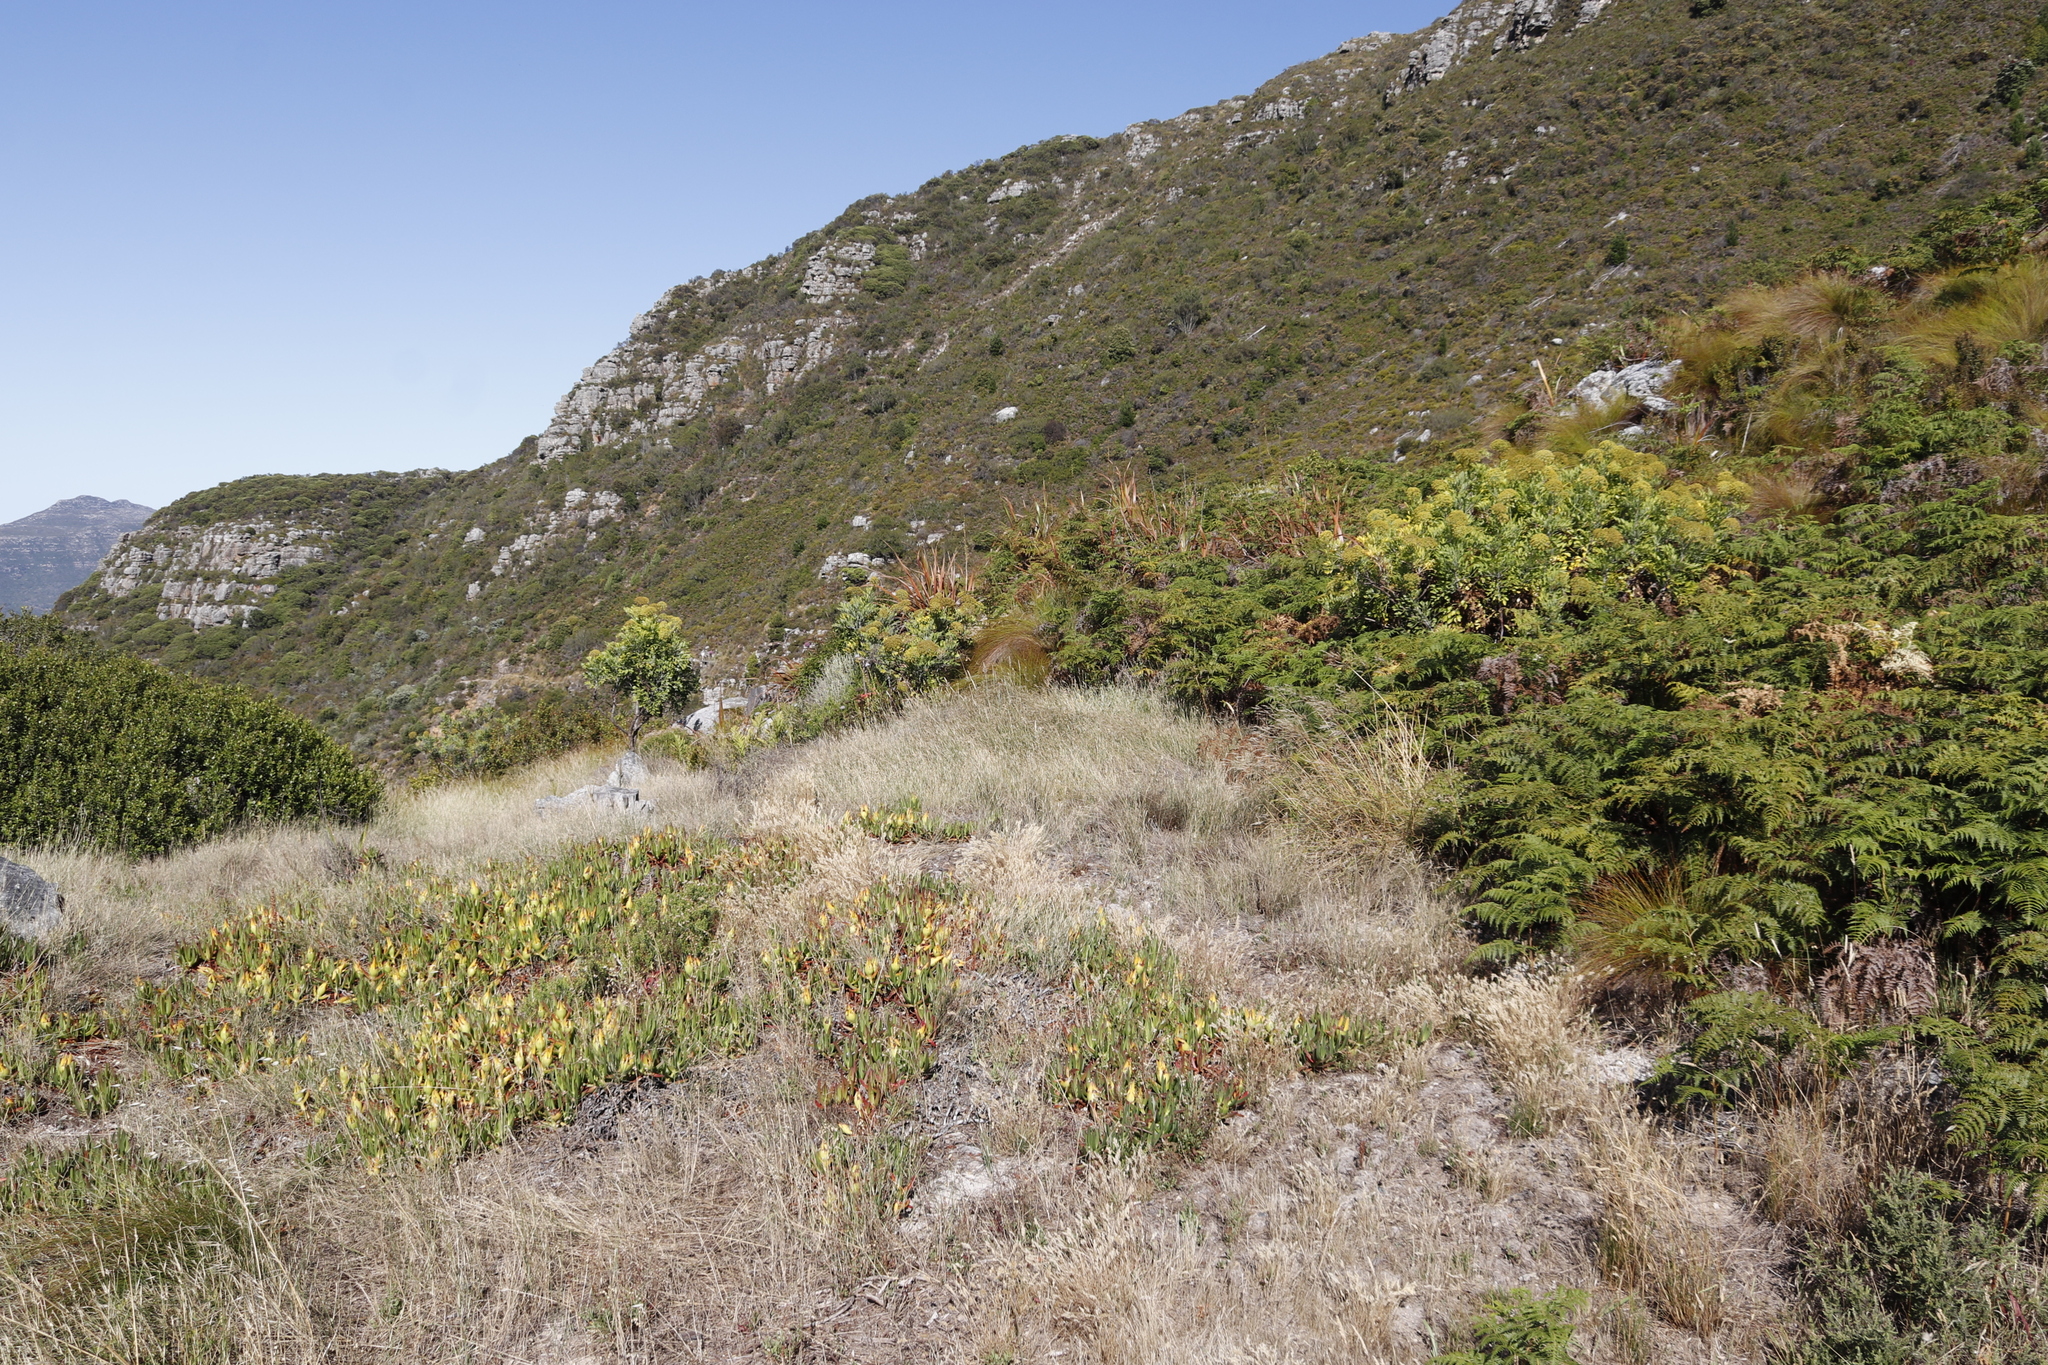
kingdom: Plantae
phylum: Tracheophyta
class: Magnoliopsida
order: Caryophyllales
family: Aizoaceae
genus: Carpobrotus
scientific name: Carpobrotus edulis
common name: Hottentot-fig
